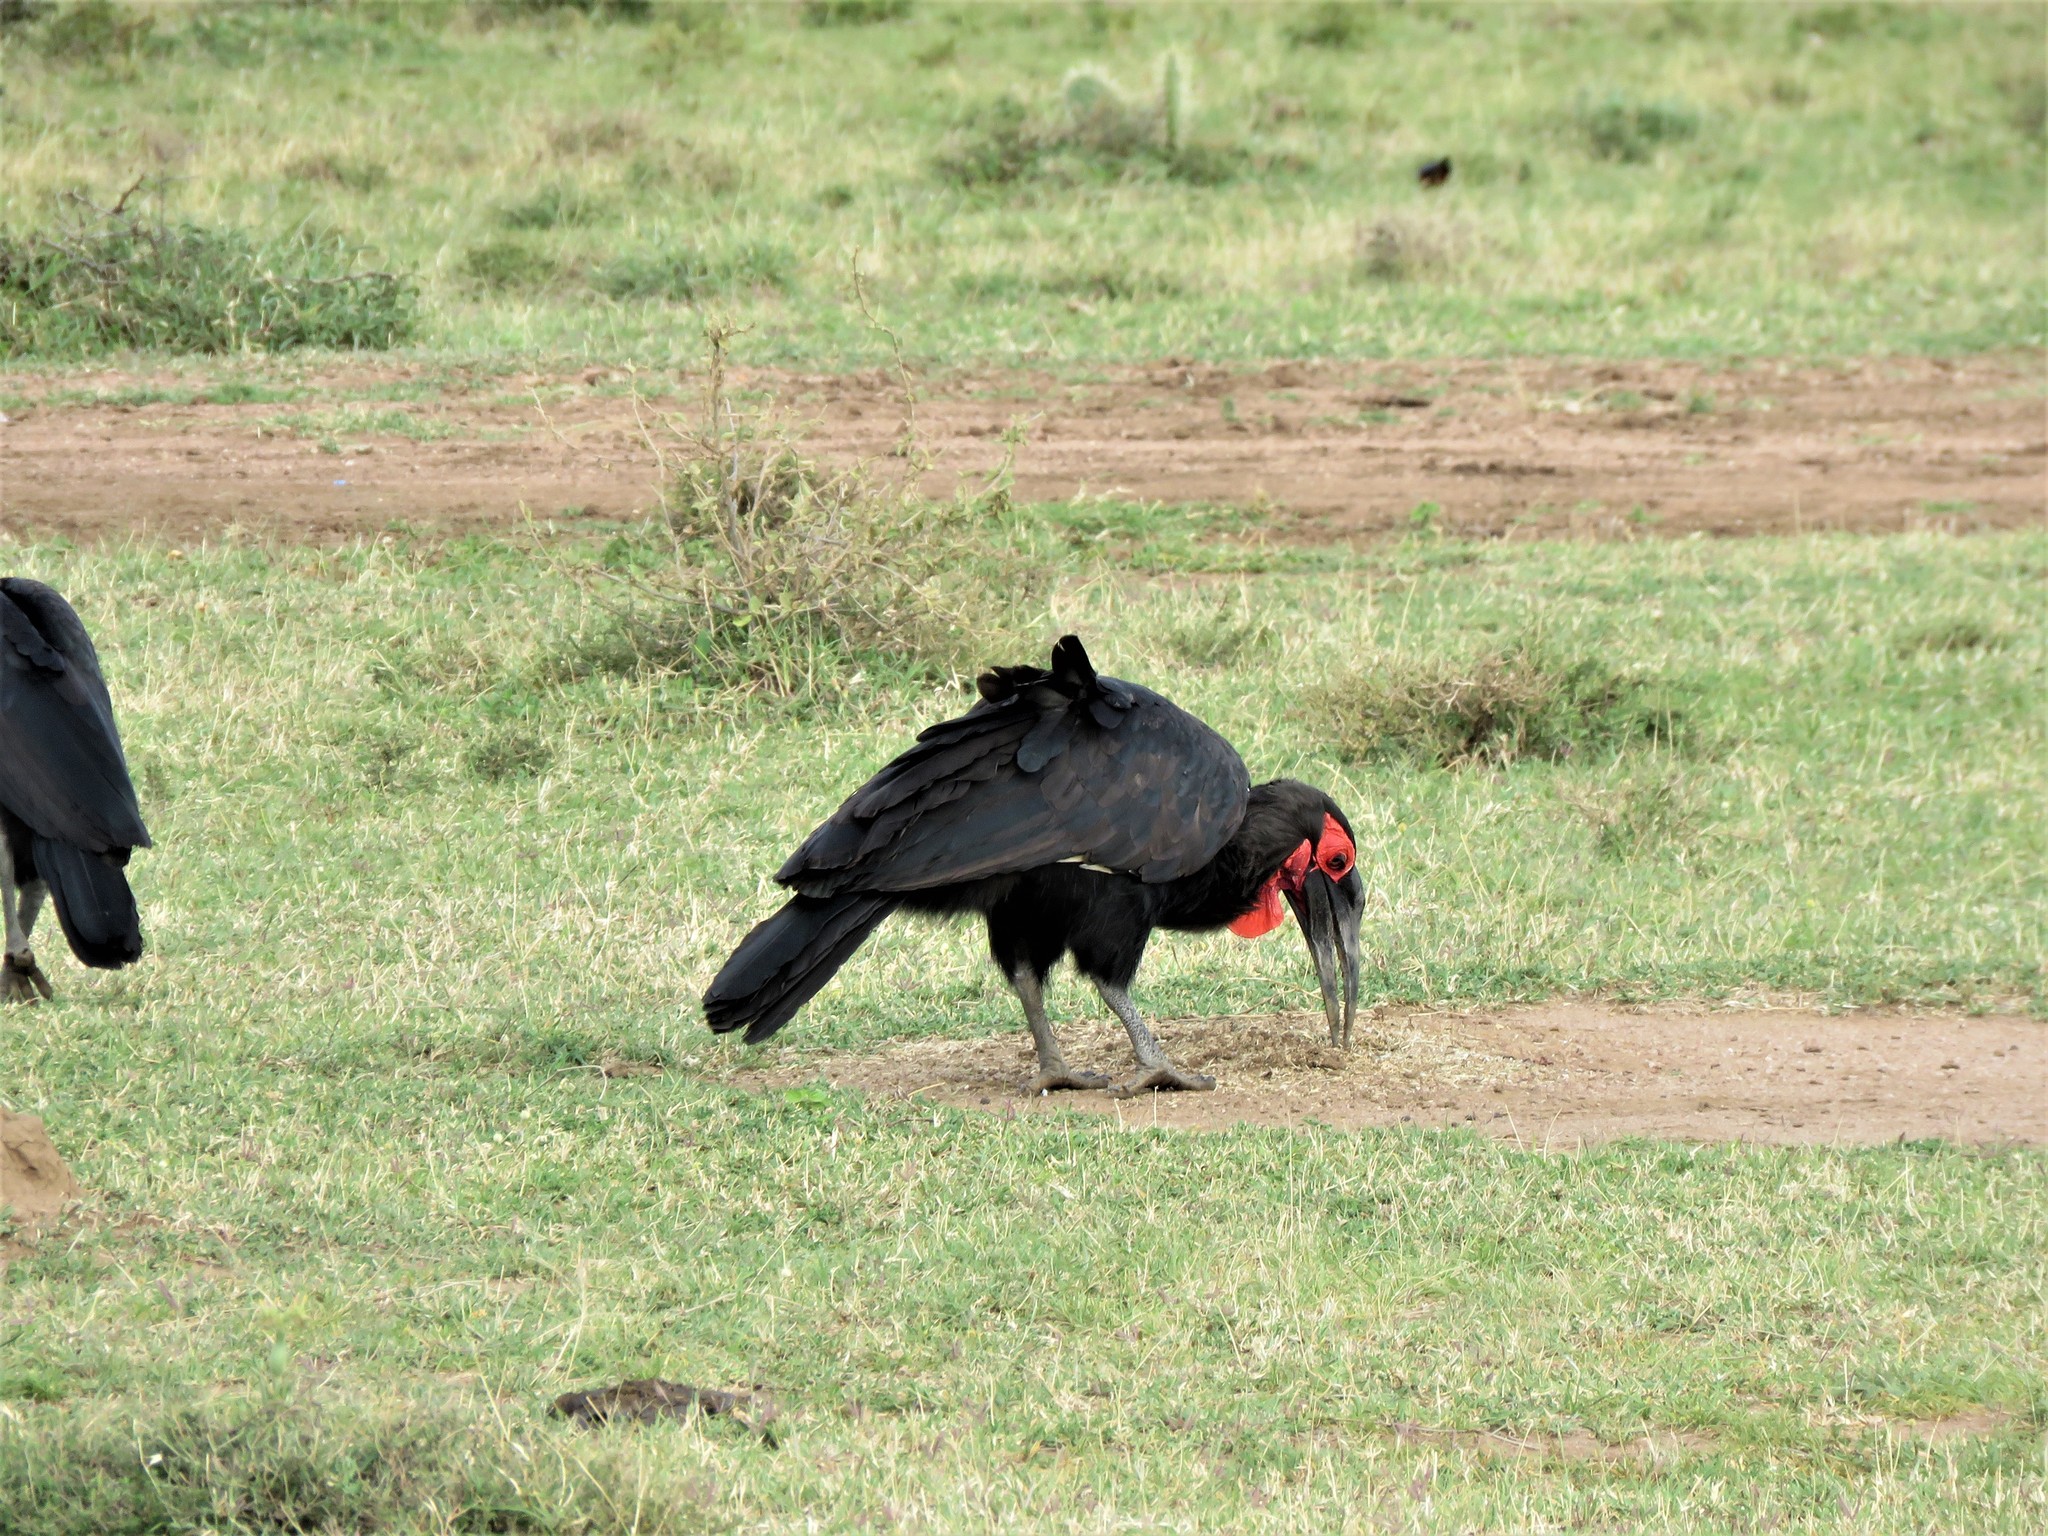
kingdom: Animalia
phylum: Chordata
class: Aves
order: Bucerotiformes
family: Bucorvidae
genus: Bucorvus
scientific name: Bucorvus leadbeateri
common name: Southern ground-hornbill
